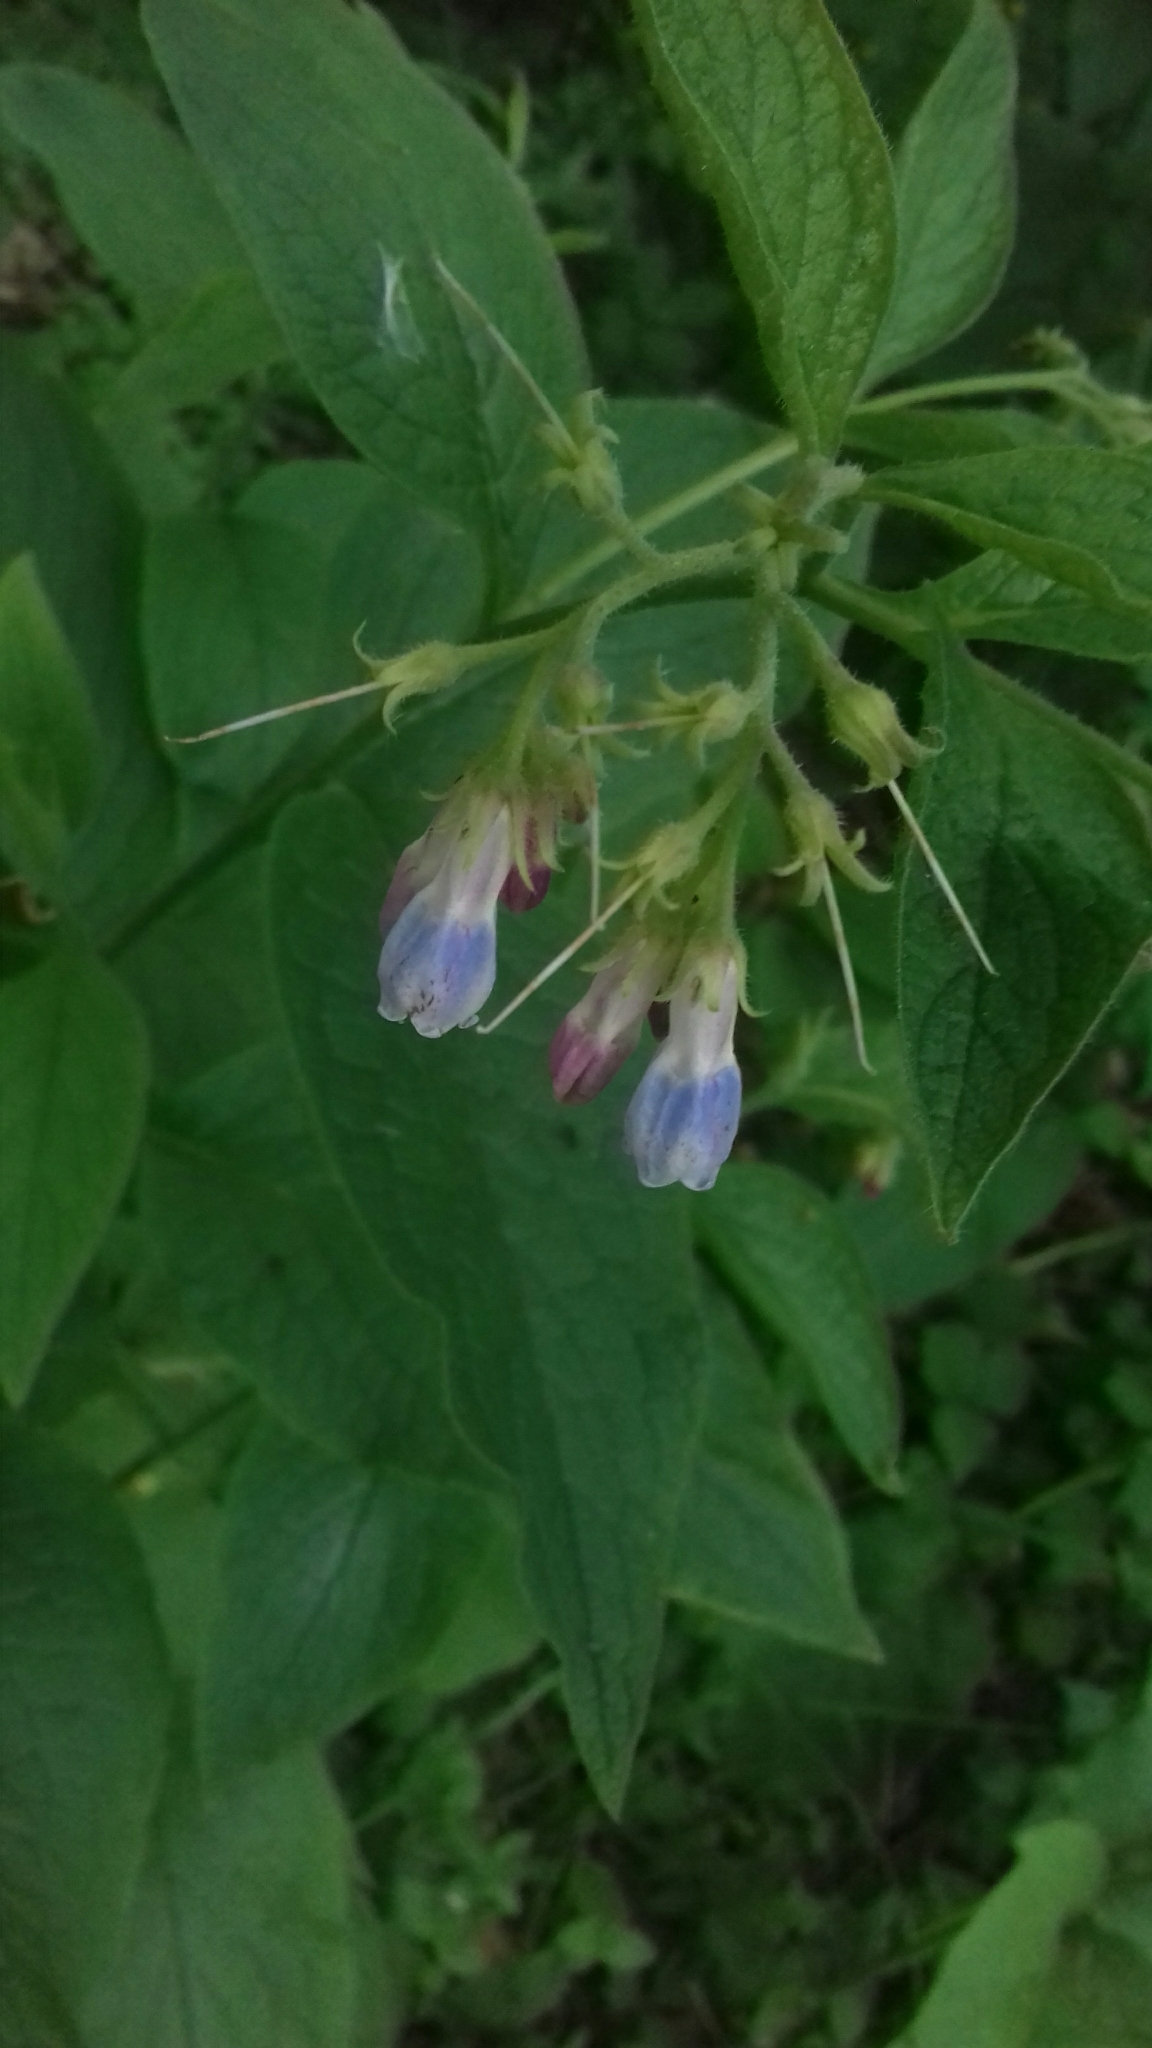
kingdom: Plantae
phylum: Tracheophyta
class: Magnoliopsida
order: Boraginales
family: Boraginaceae
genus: Symphytum
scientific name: Symphytum officinale
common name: Common comfrey
